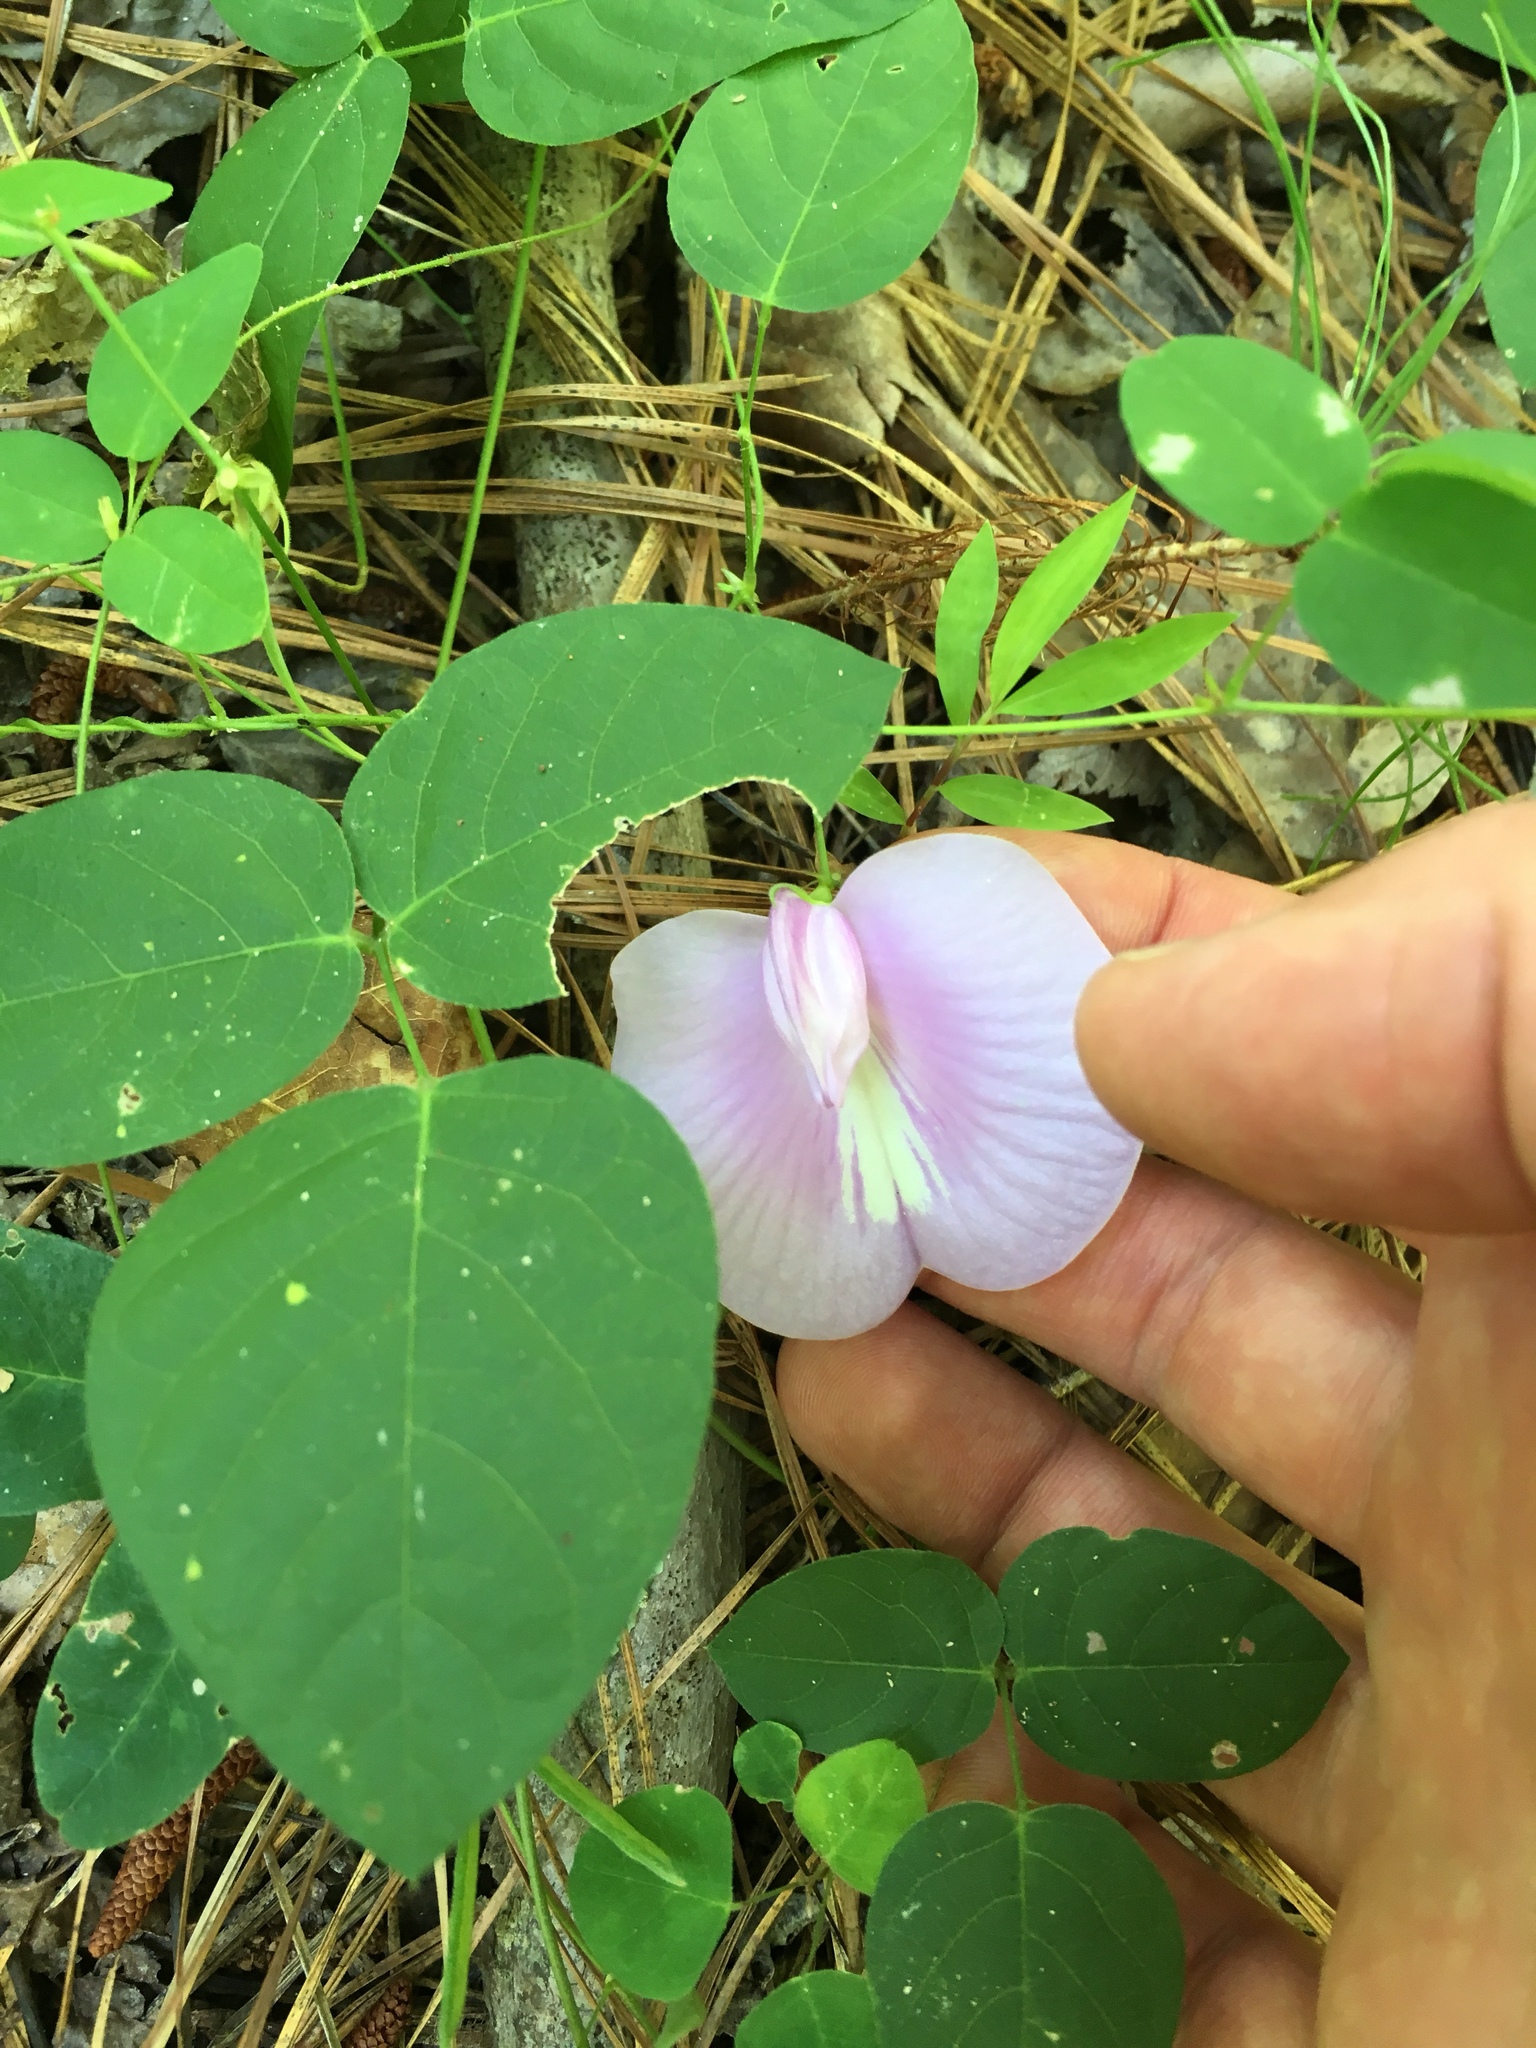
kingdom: Plantae
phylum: Tracheophyta
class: Magnoliopsida
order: Fabales
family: Fabaceae
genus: Centrosema
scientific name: Centrosema virginianum
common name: Butterfly-pea
